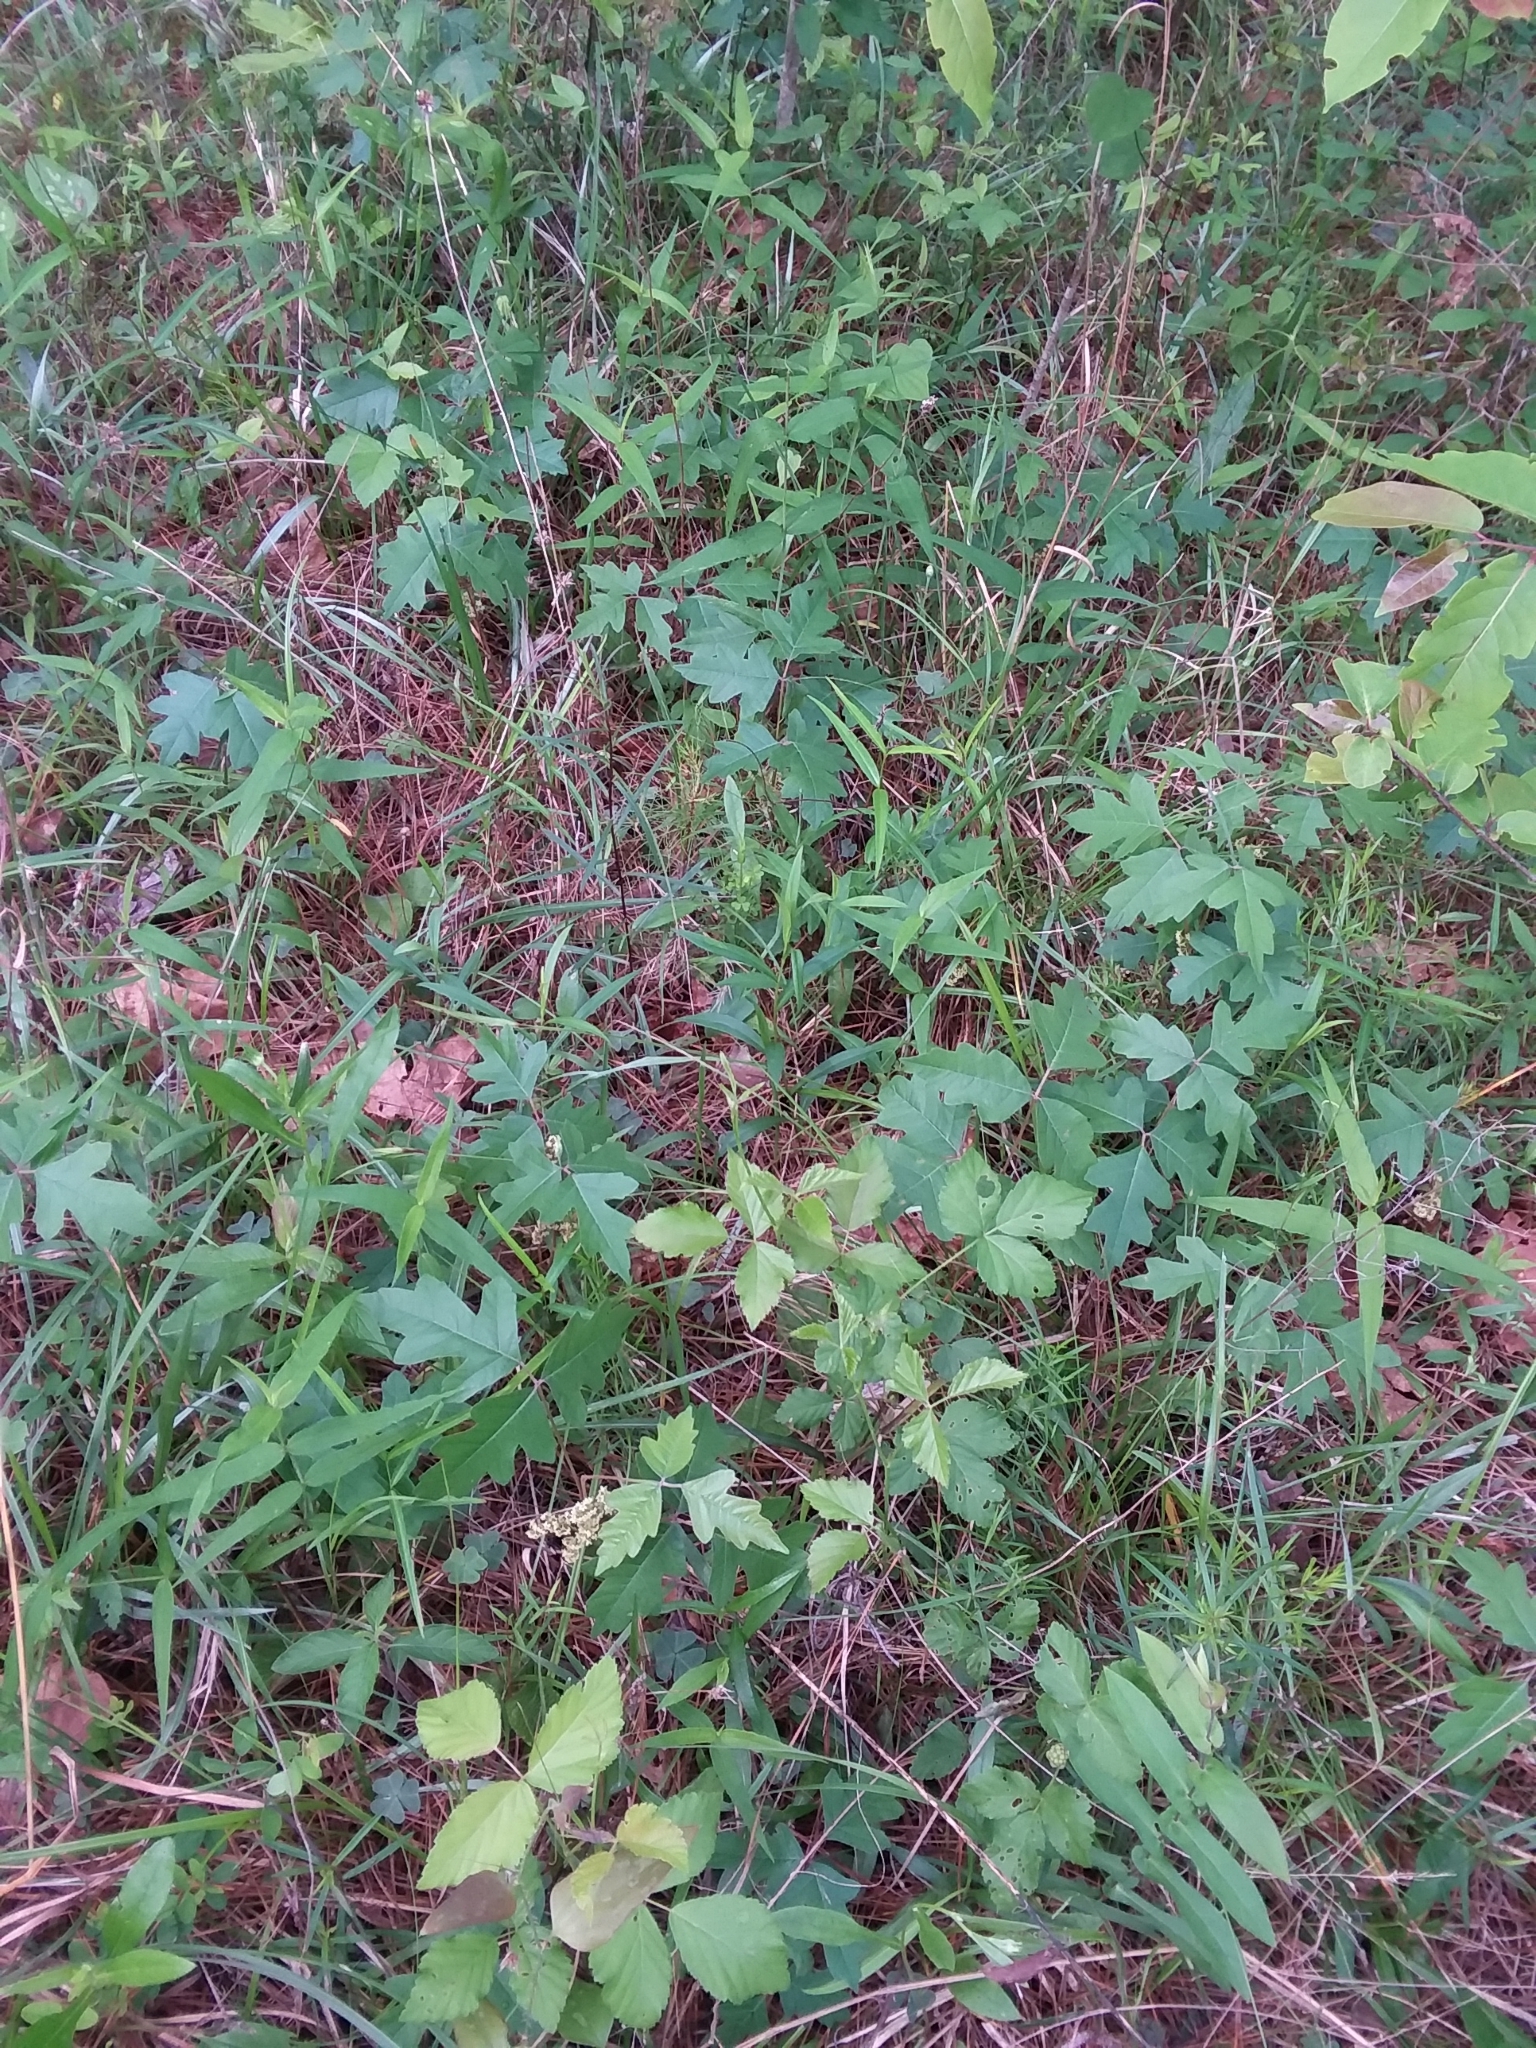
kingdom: Plantae
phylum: Tracheophyta
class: Magnoliopsida
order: Sapindales
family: Anacardiaceae
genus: Toxicodendron
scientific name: Toxicodendron pubescens
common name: Eastern poison-oak
